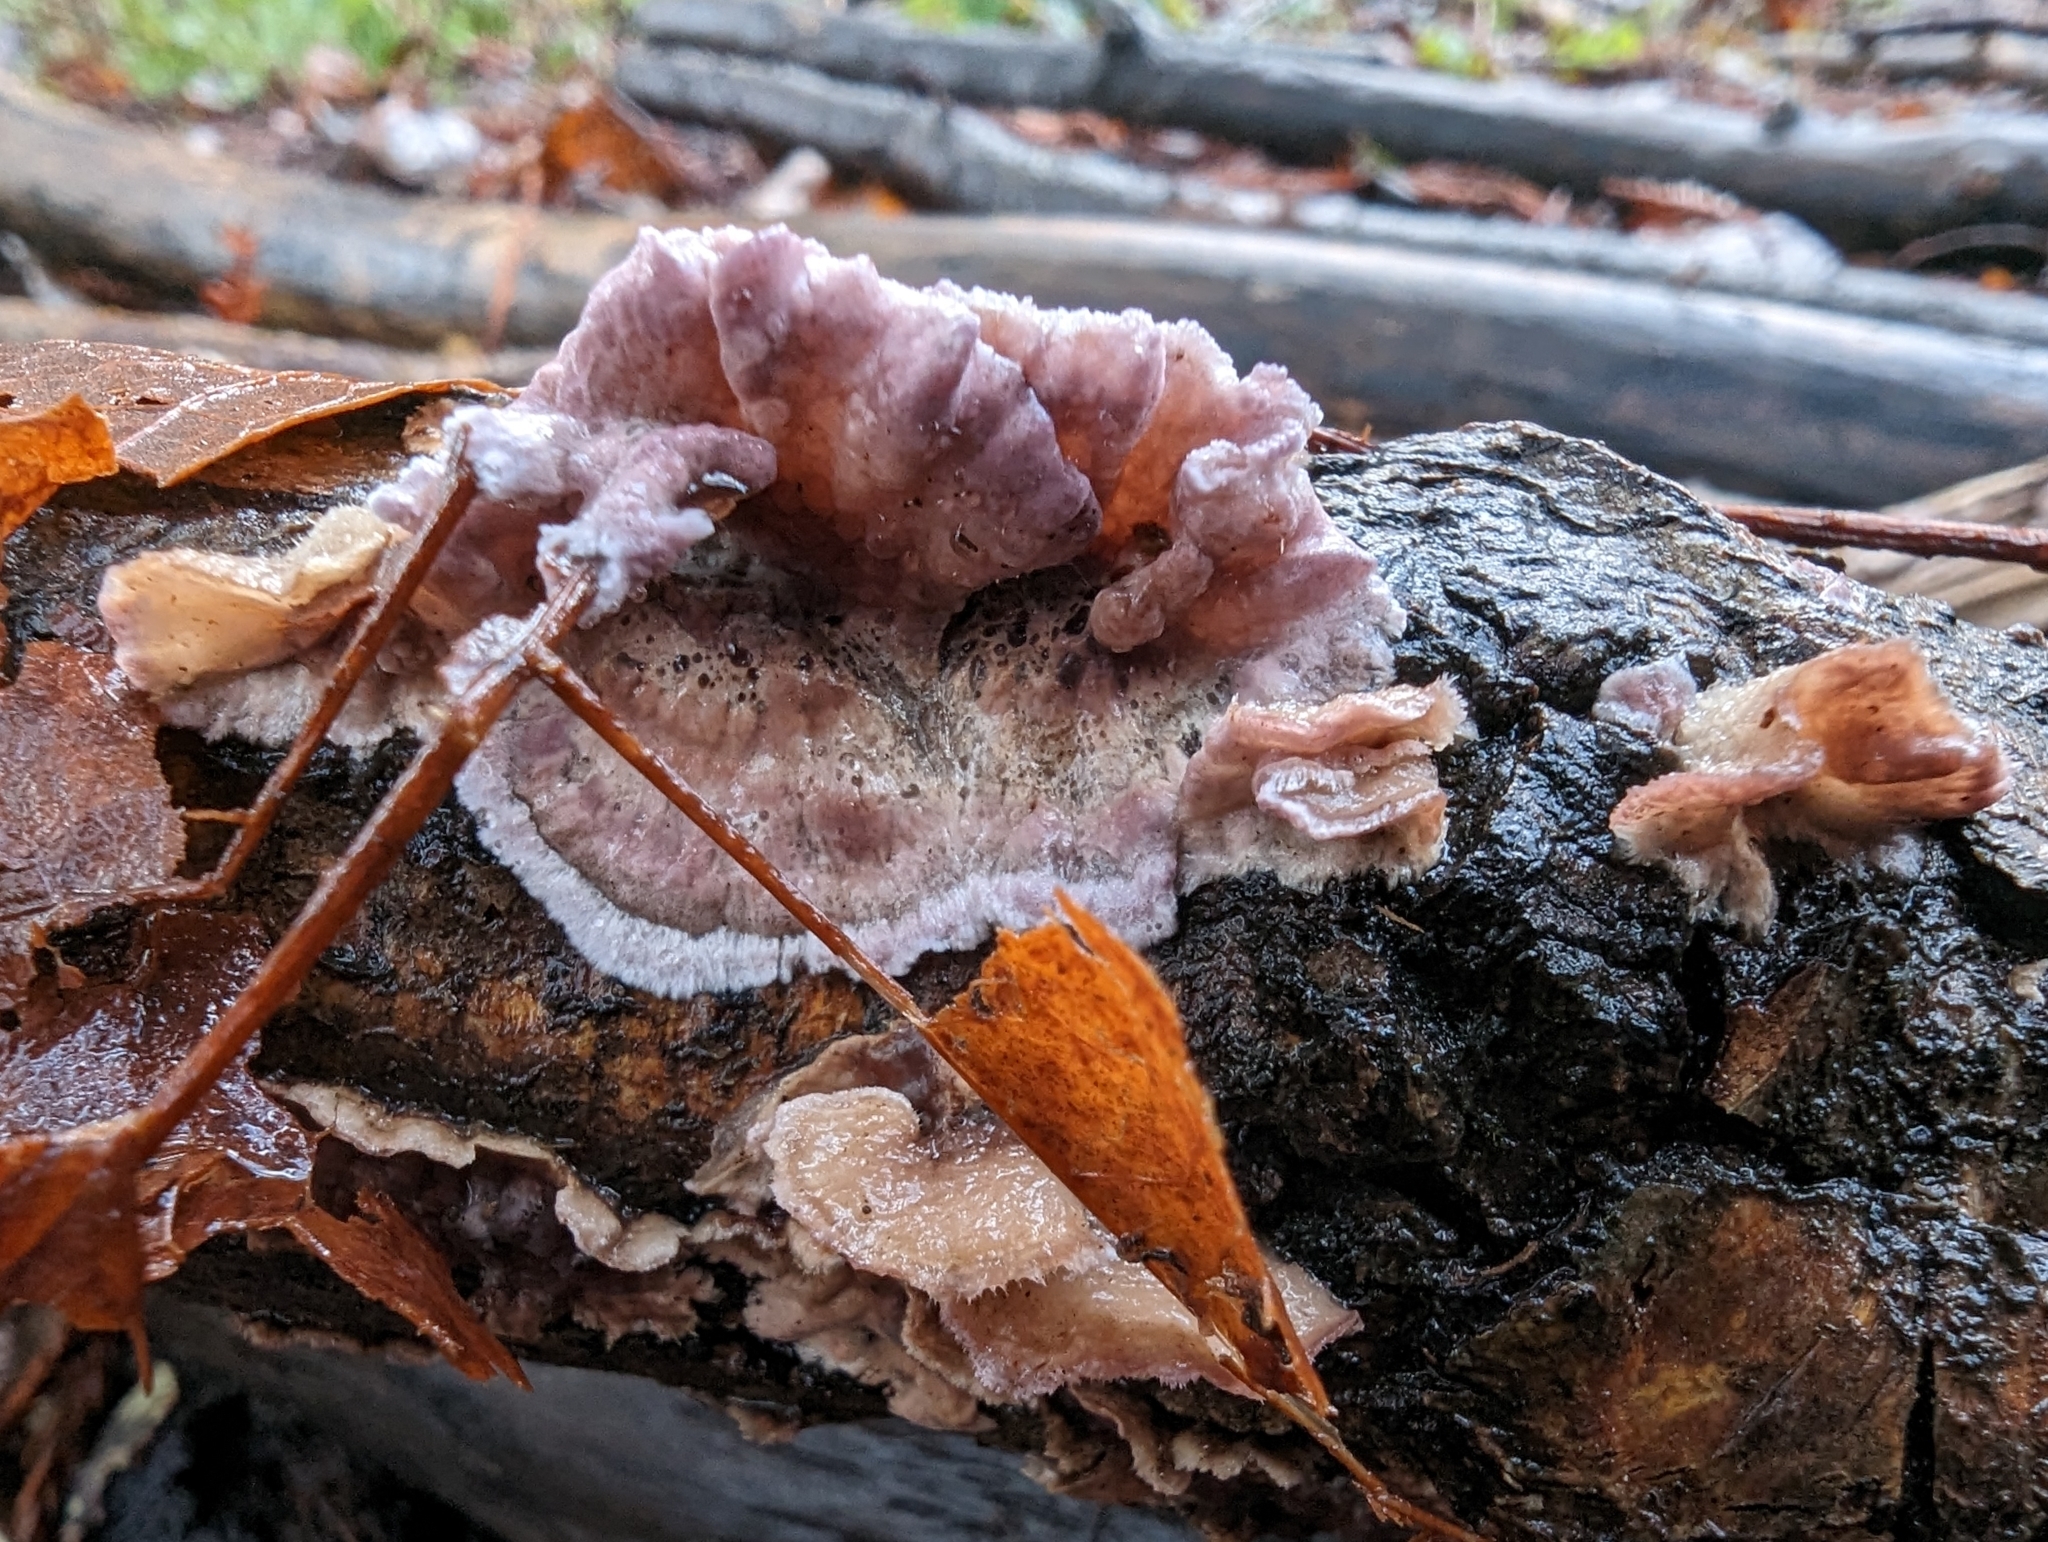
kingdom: Fungi
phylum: Basidiomycota
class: Agaricomycetes
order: Agaricales
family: Cyphellaceae
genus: Chondrostereum
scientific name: Chondrostereum purpureum
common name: Silver leaf disease
